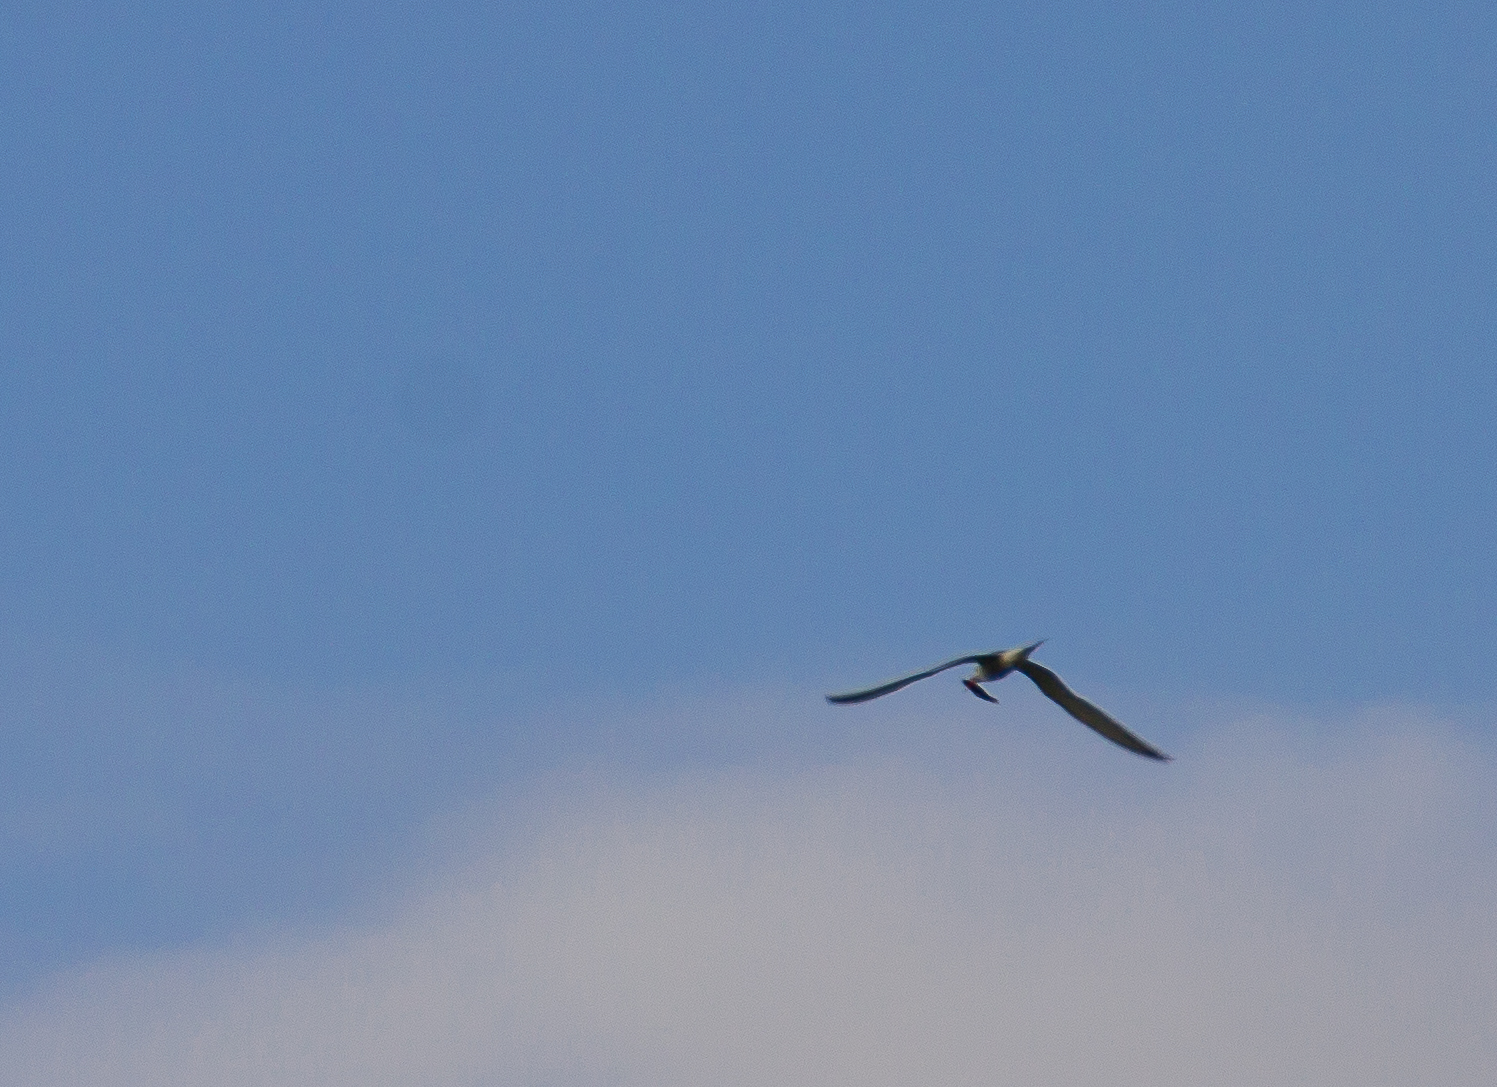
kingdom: Animalia
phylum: Chordata
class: Aves
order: Charadriiformes
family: Laridae
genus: Sterna
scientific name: Sterna hirundo
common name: Common tern
